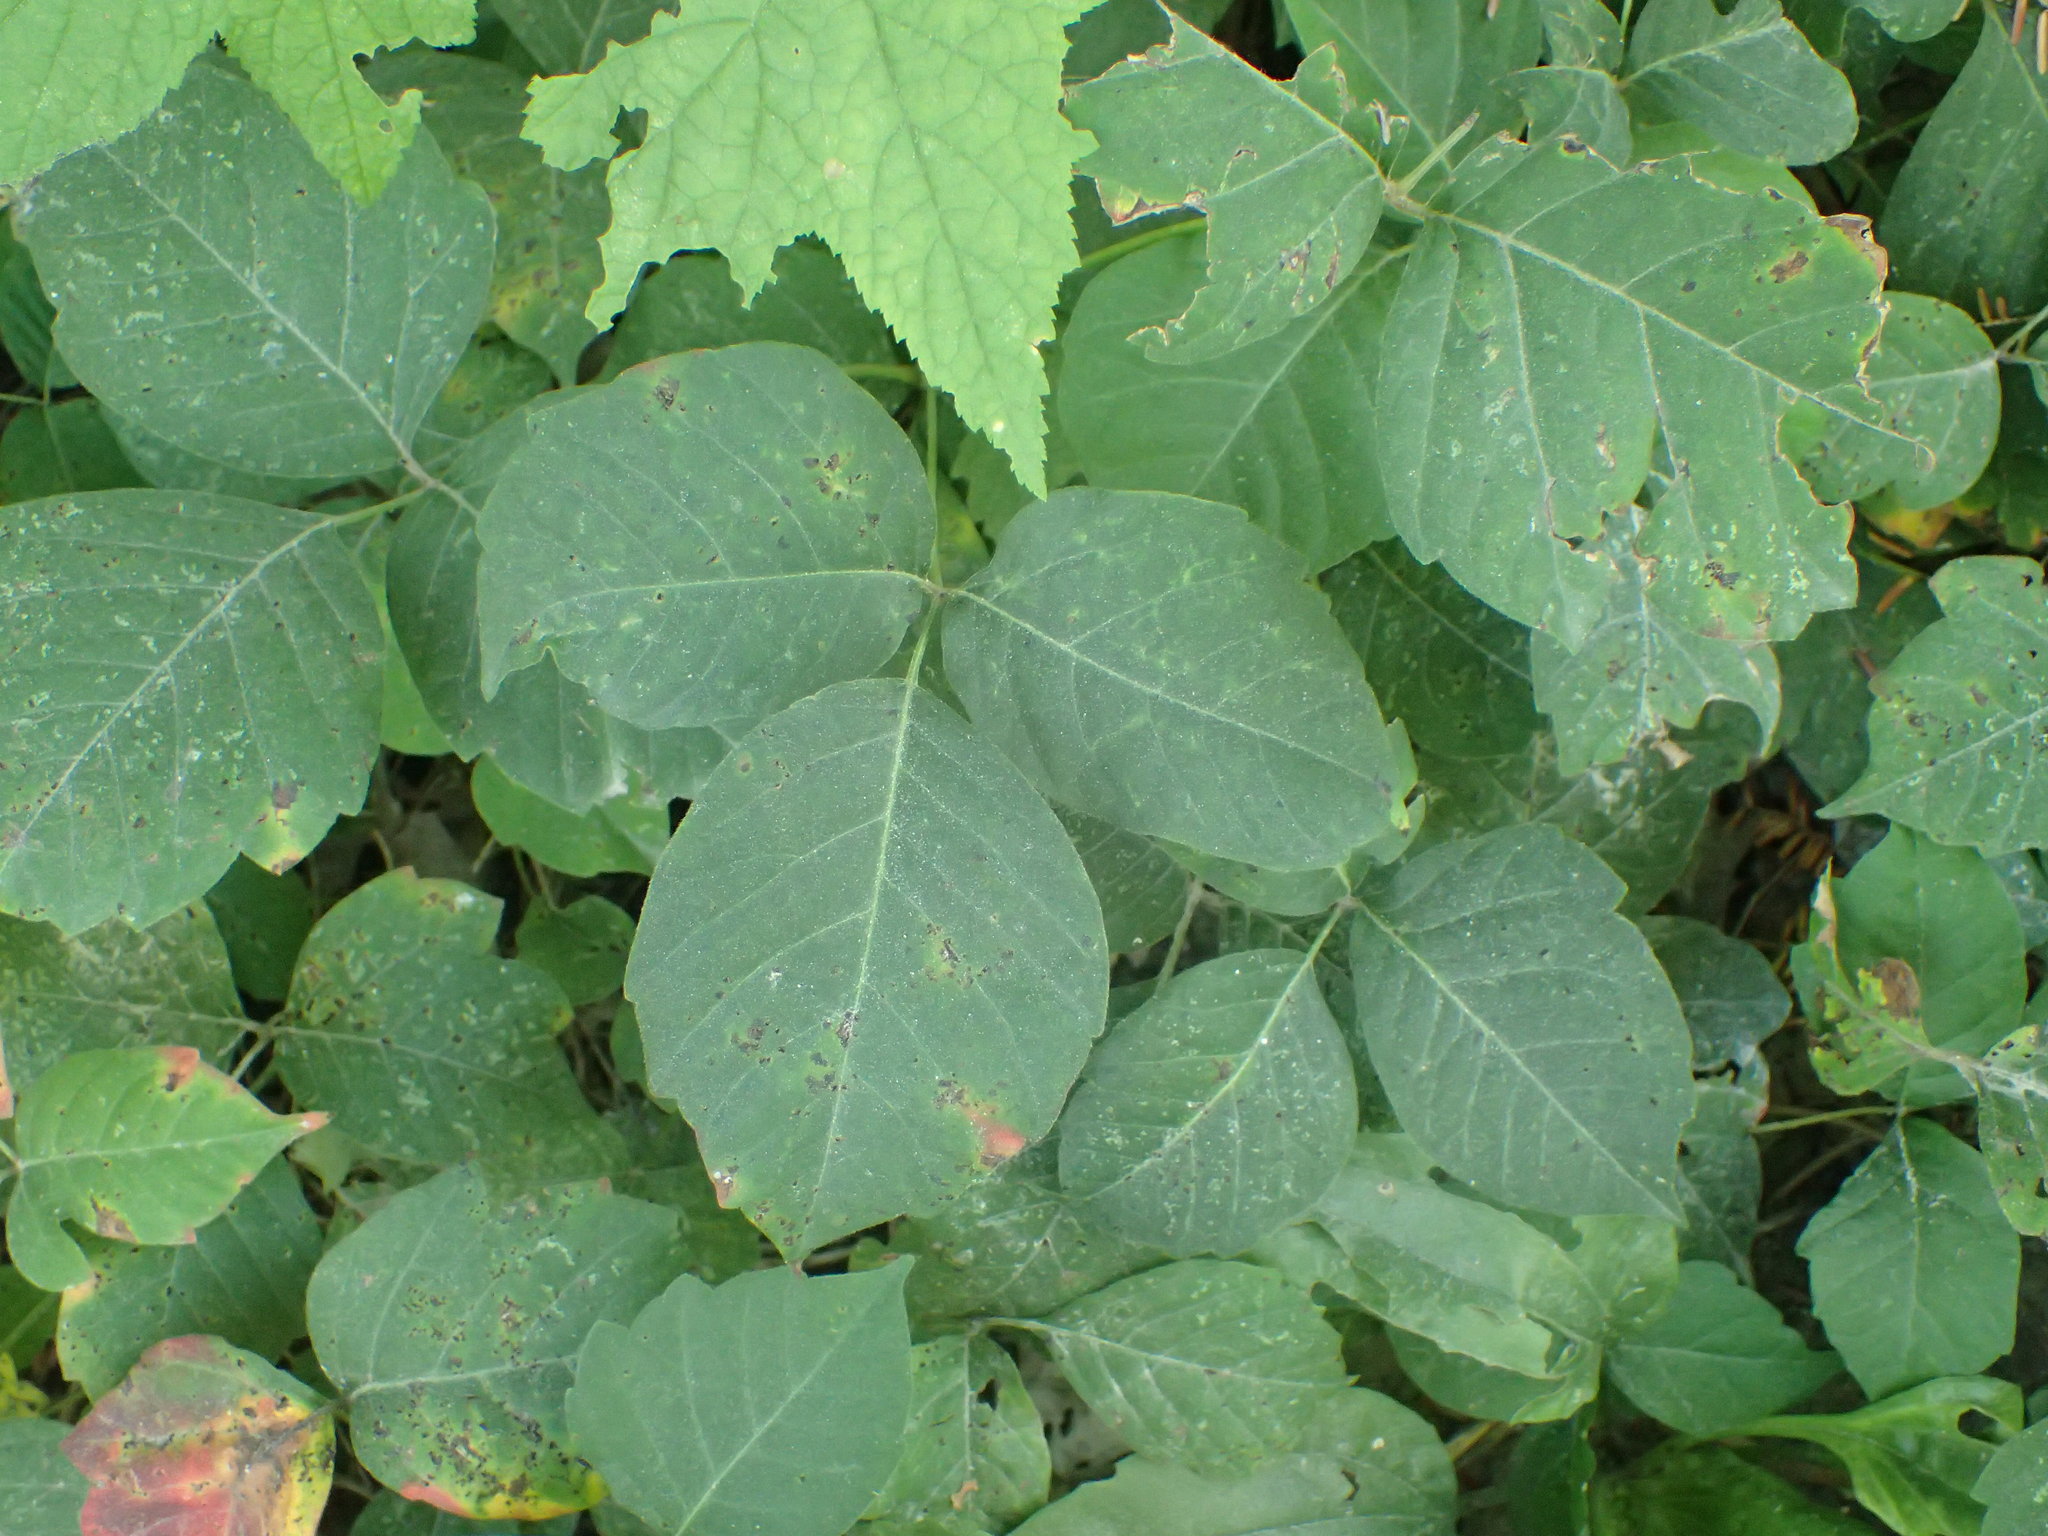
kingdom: Plantae
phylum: Tracheophyta
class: Magnoliopsida
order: Sapindales
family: Anacardiaceae
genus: Toxicodendron
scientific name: Toxicodendron radicans
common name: Poison ivy
